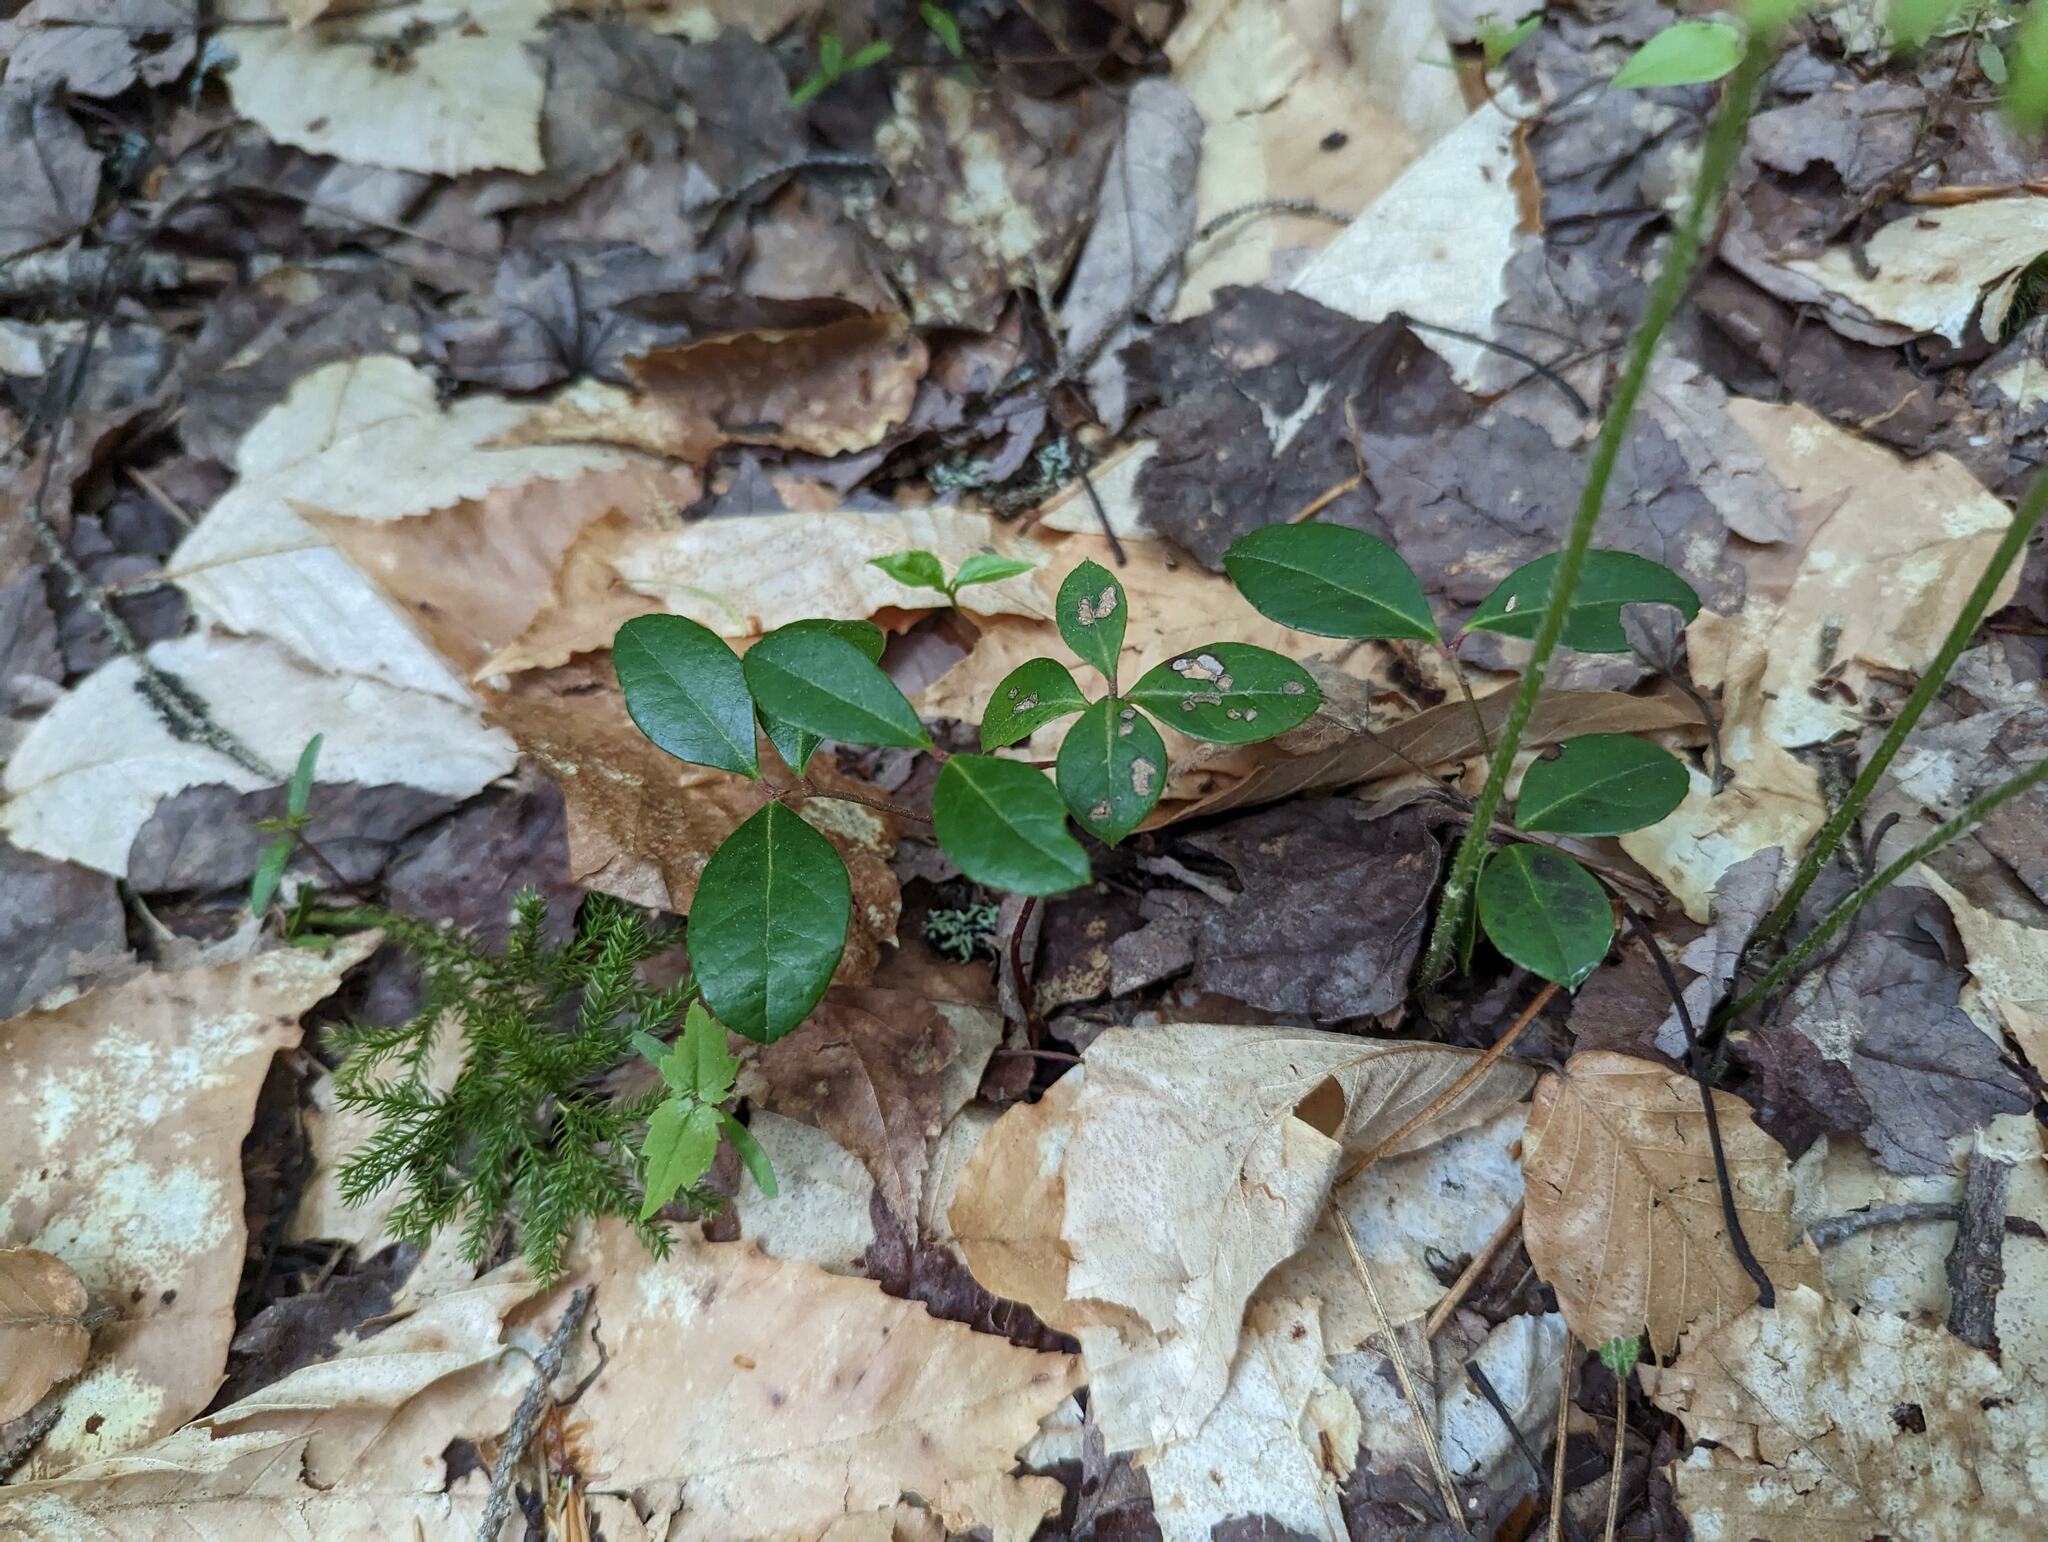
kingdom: Plantae
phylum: Tracheophyta
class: Magnoliopsida
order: Ericales
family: Ericaceae
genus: Gaultheria
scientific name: Gaultheria procumbens
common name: Checkerberry
